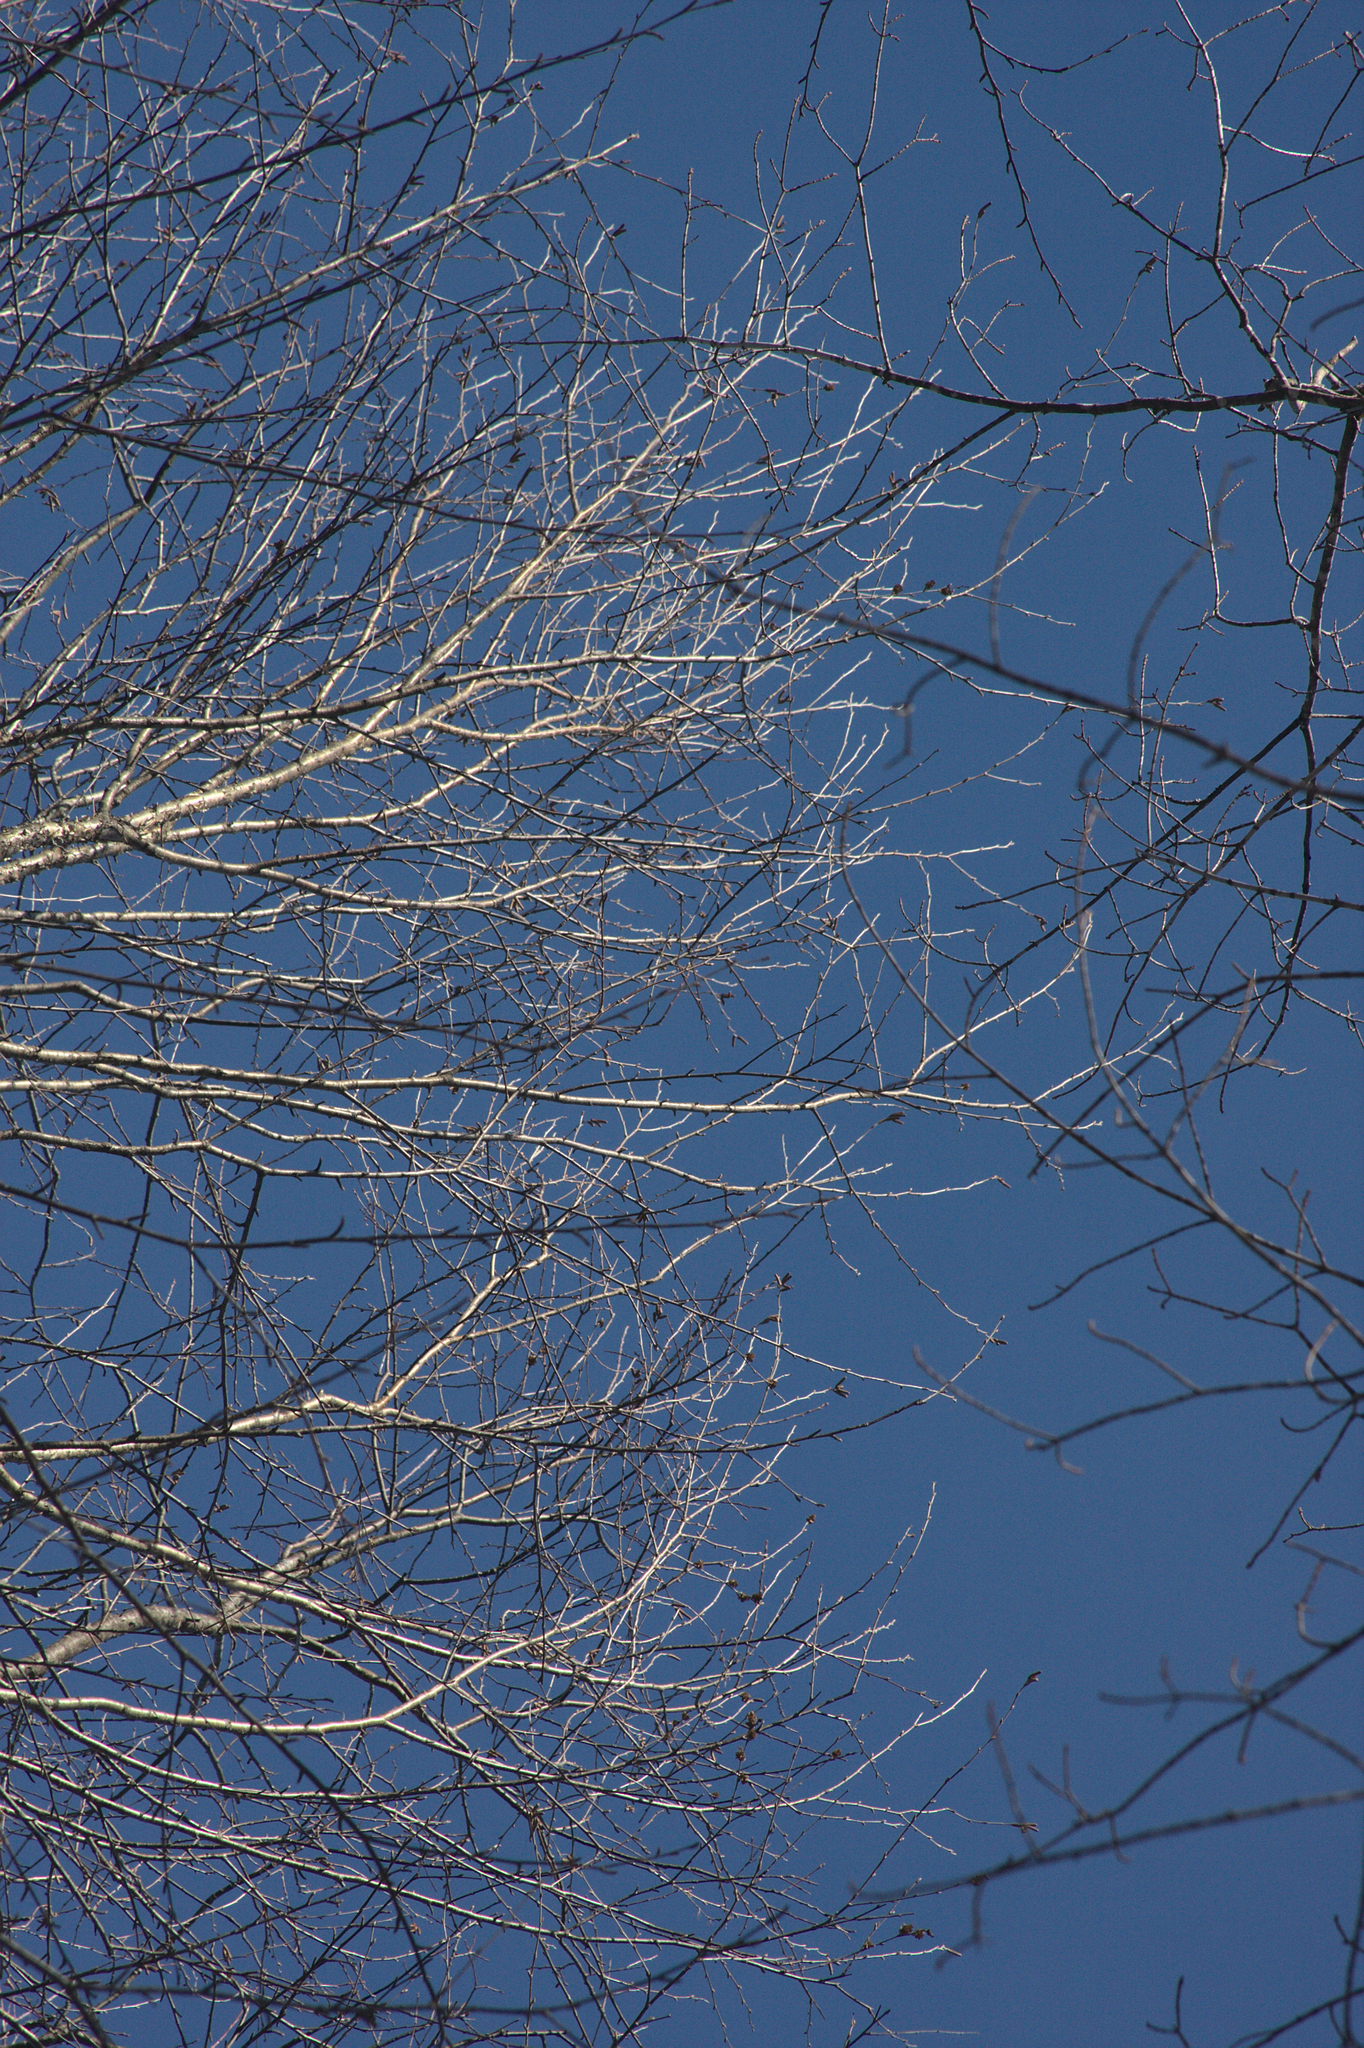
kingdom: Plantae
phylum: Tracheophyta
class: Magnoliopsida
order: Fagales
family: Betulaceae
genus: Betula
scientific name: Betula alleghaniensis
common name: Yellow birch
